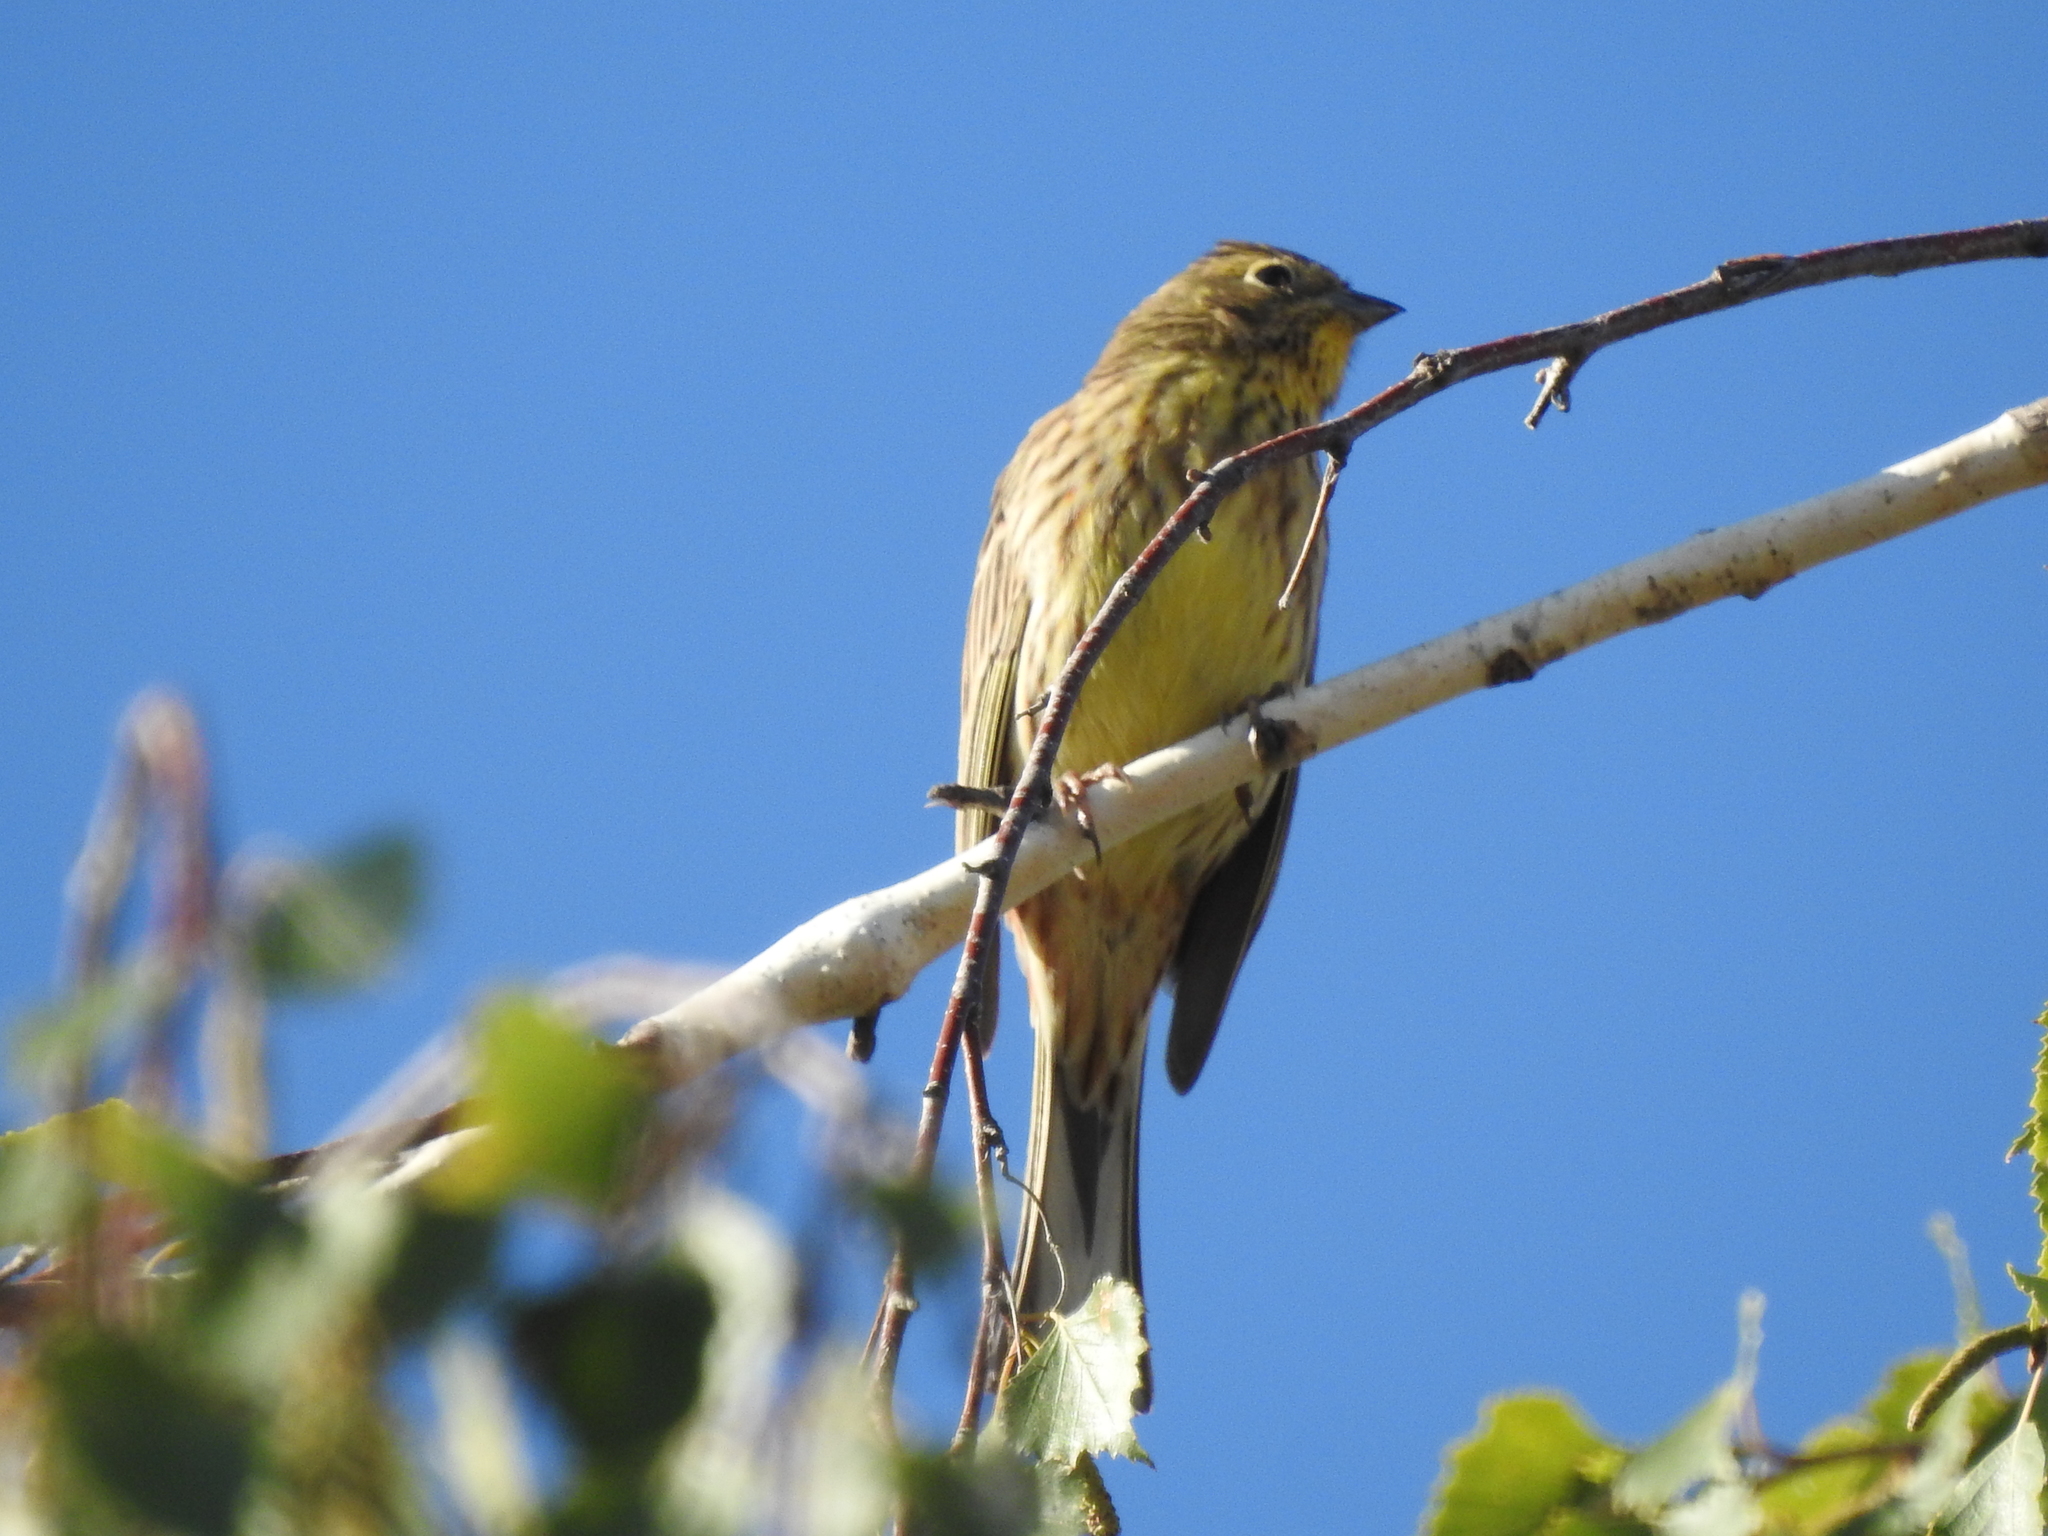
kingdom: Animalia
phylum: Chordata
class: Aves
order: Passeriformes
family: Emberizidae
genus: Emberiza
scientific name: Emberiza citrinella
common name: Yellowhammer
